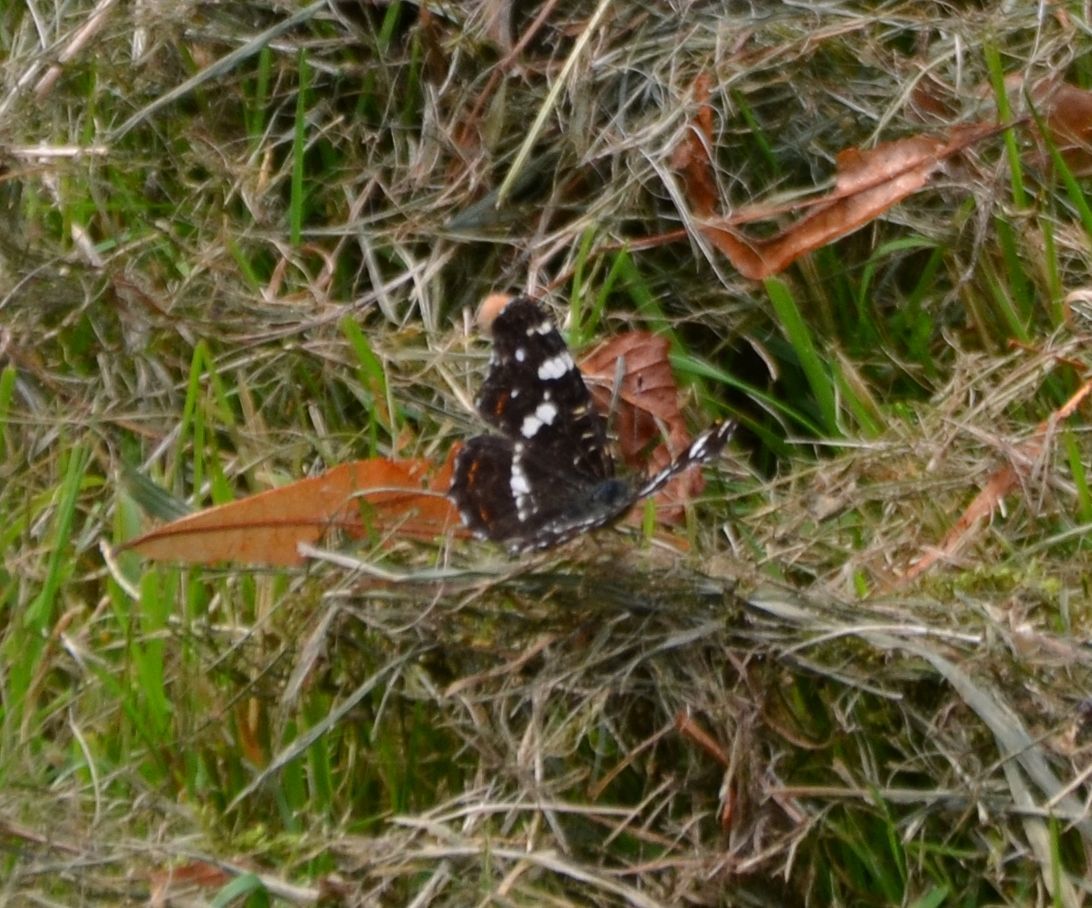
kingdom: Animalia
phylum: Arthropoda
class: Insecta
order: Lepidoptera
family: Nymphalidae
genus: Araschnia
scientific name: Araschnia levana
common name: Map butterfly
